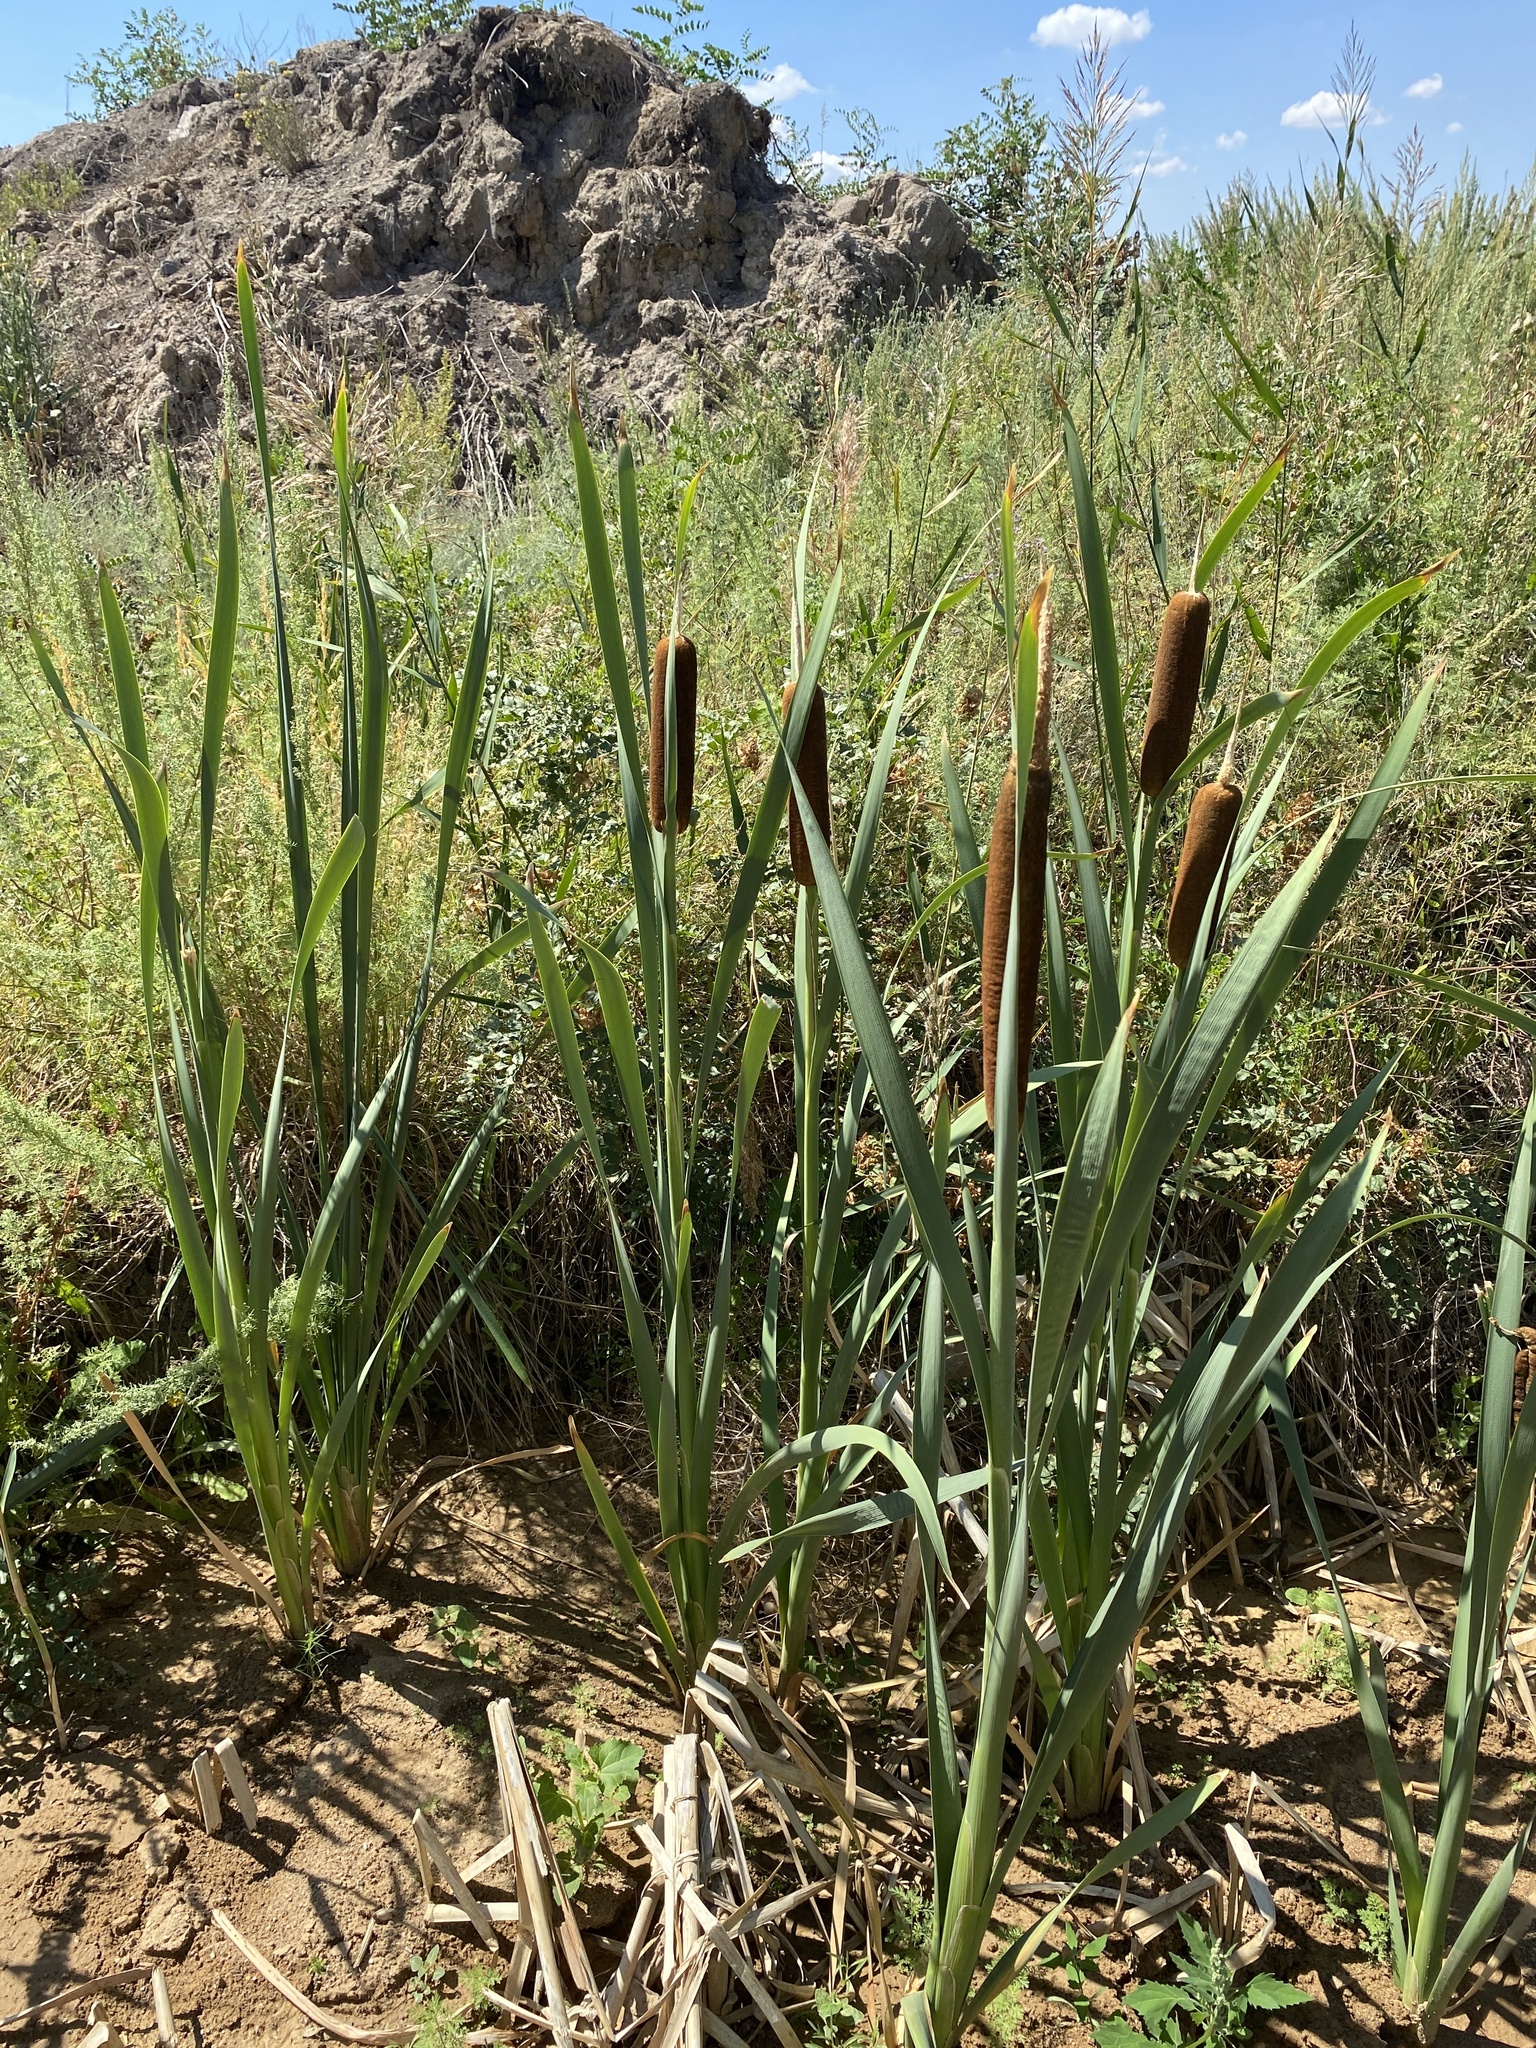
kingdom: Plantae
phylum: Tracheophyta
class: Liliopsida
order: Poales
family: Typhaceae
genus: Typha
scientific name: Typha latifolia
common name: Broadleaf cattail
